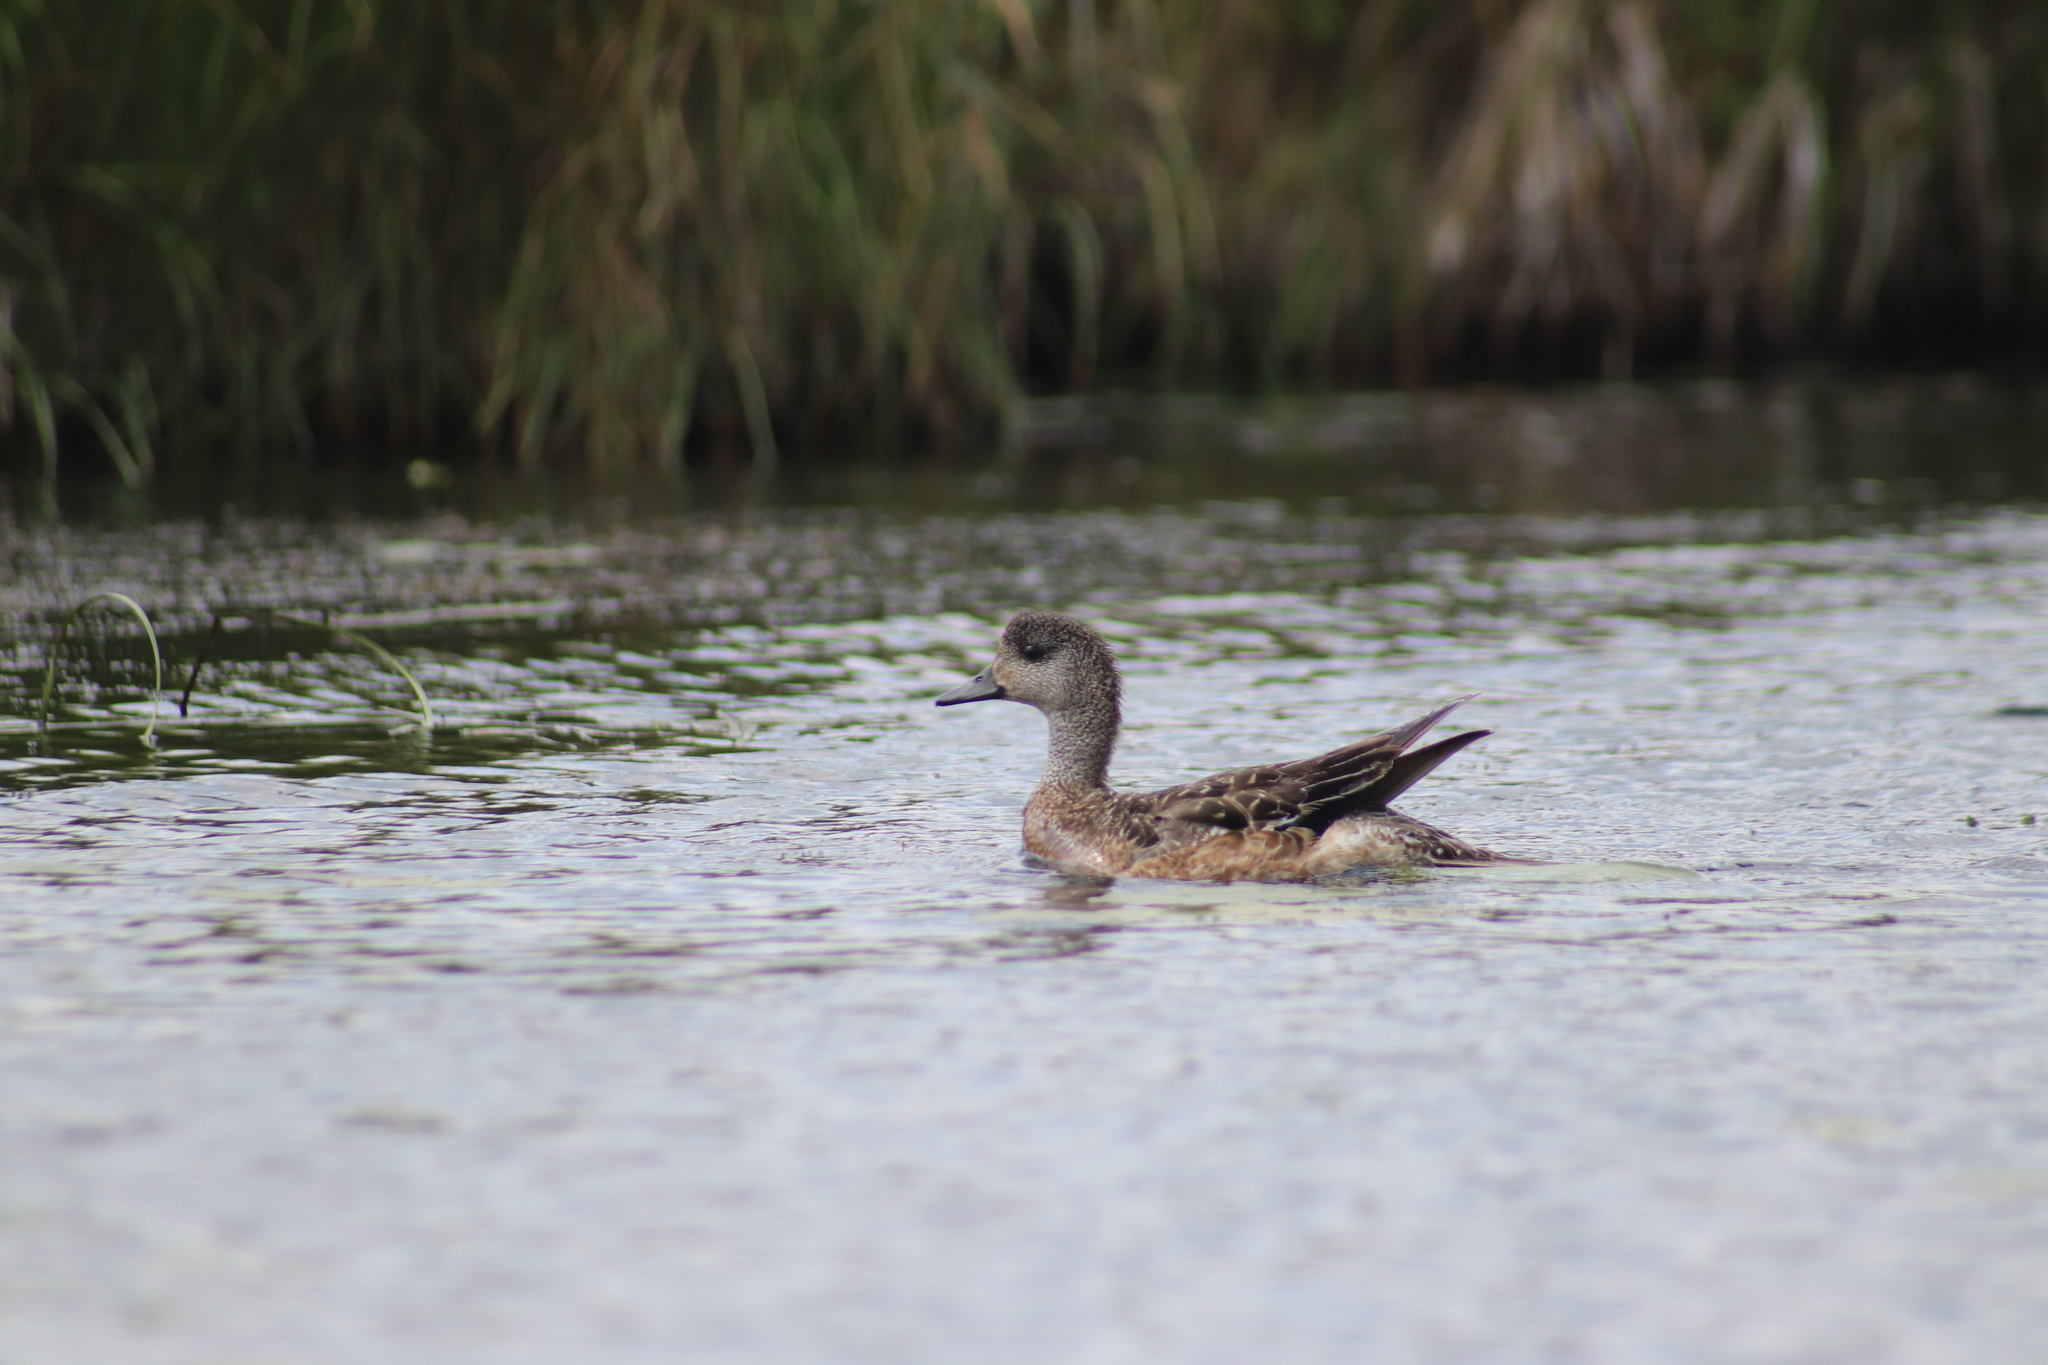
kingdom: Animalia
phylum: Chordata
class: Aves
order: Anseriformes
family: Anatidae
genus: Mareca
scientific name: Mareca americana
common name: American wigeon
